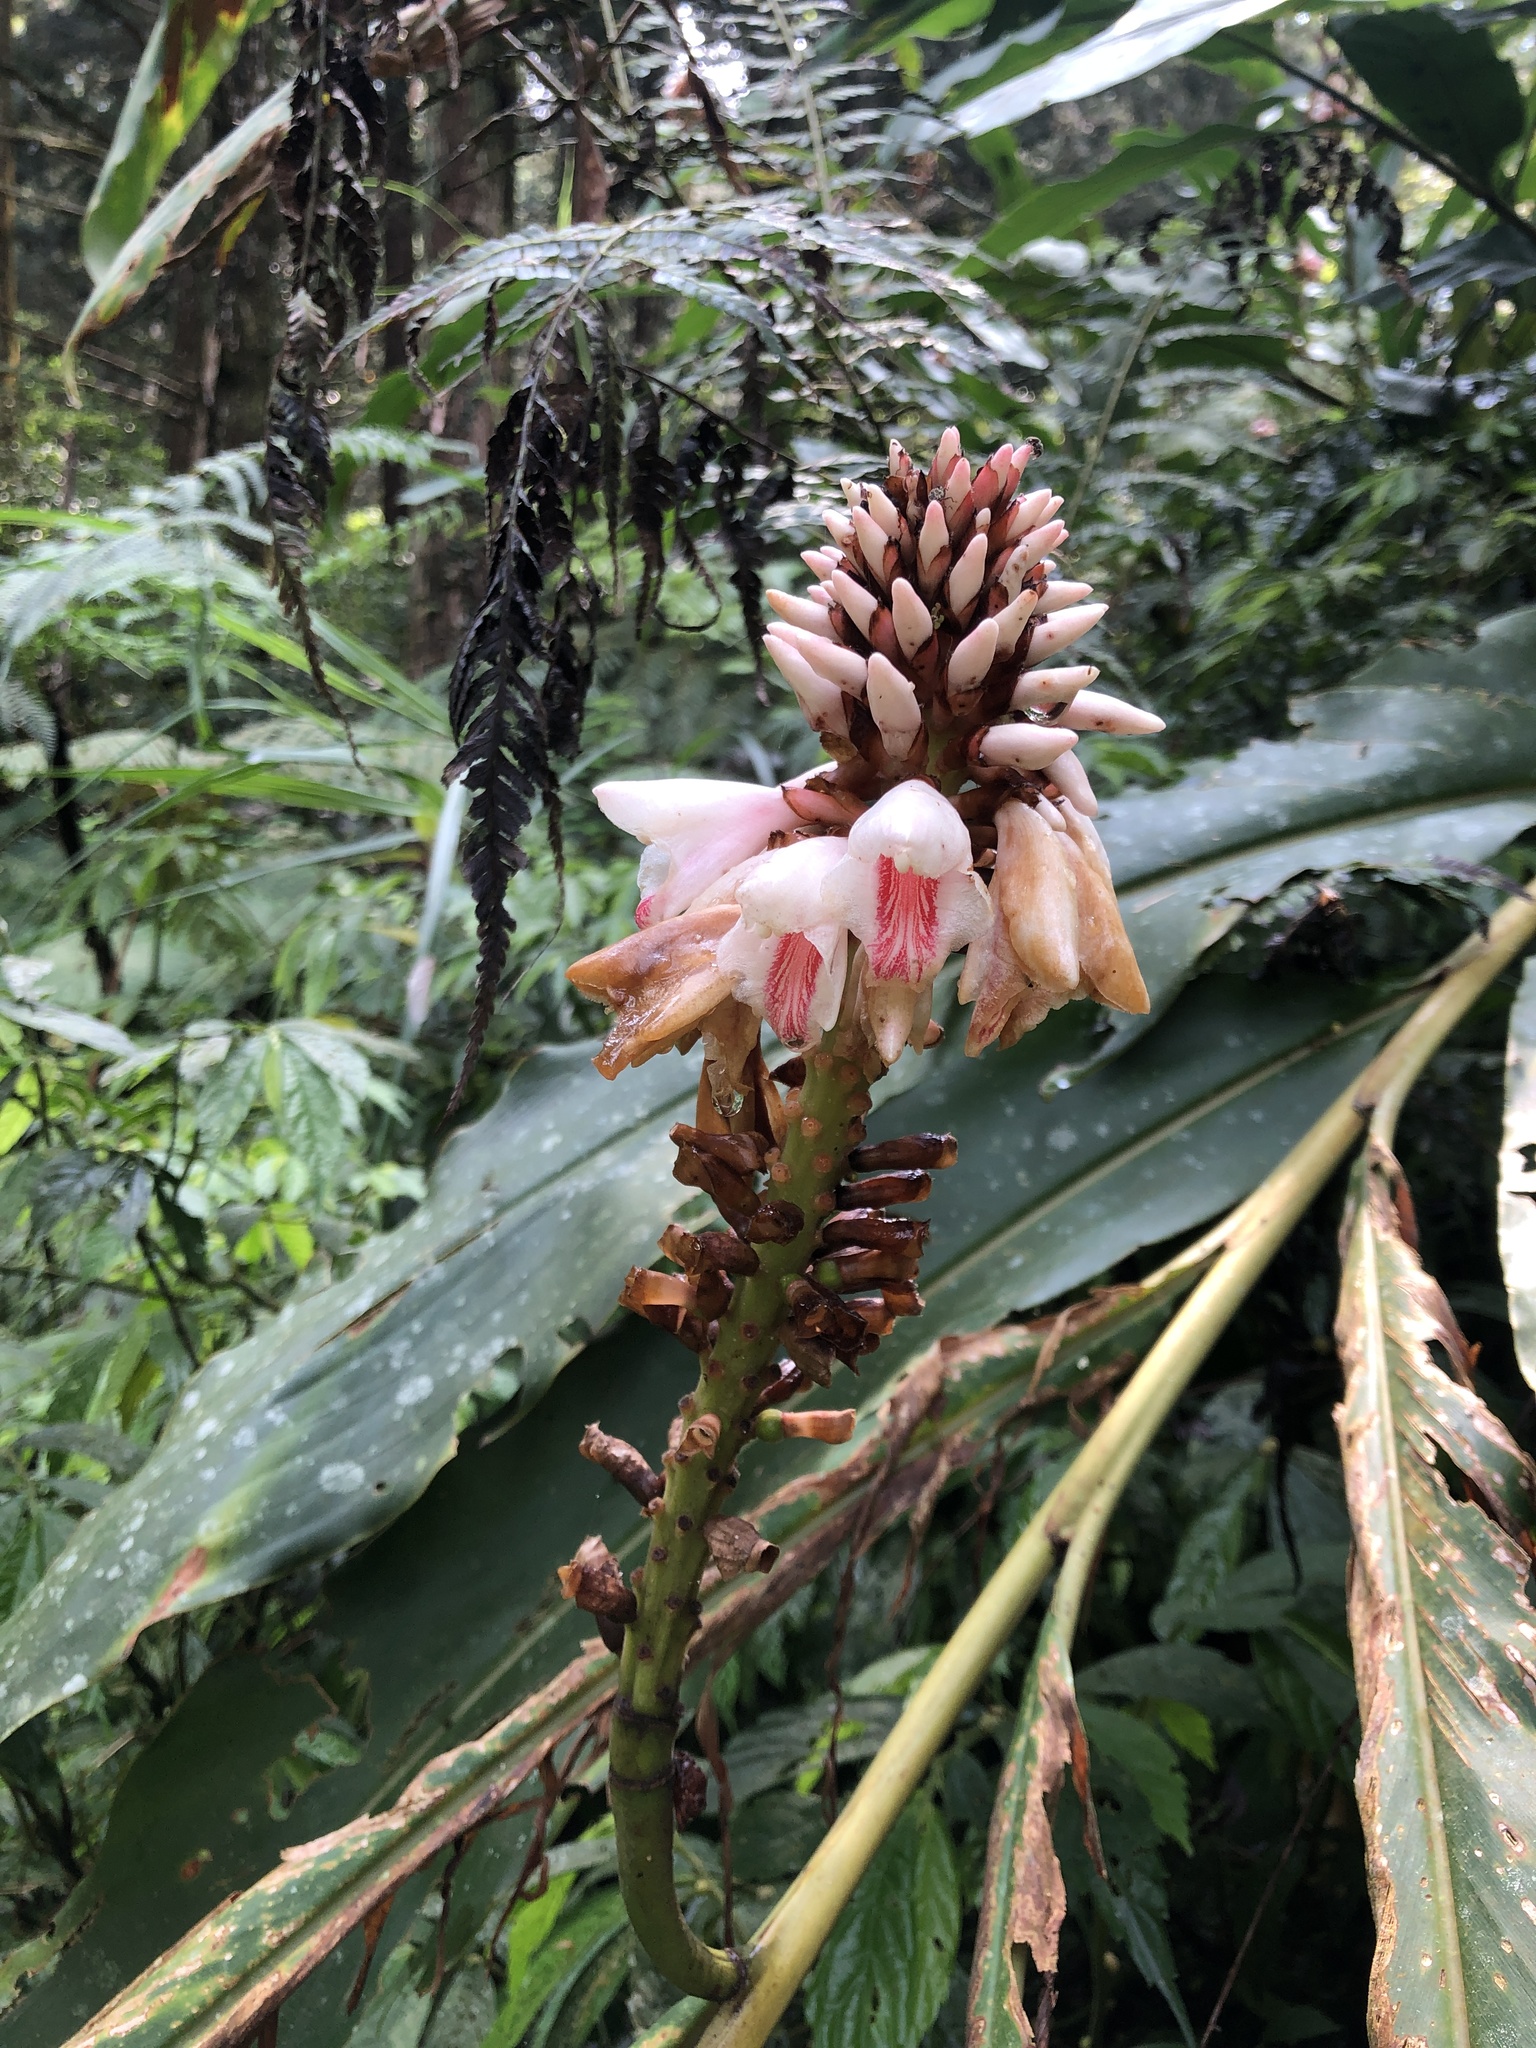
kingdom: Plantae
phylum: Tracheophyta
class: Liliopsida
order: Zingiberales
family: Zingiberaceae
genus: Alpinia
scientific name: Alpinia shimadae
